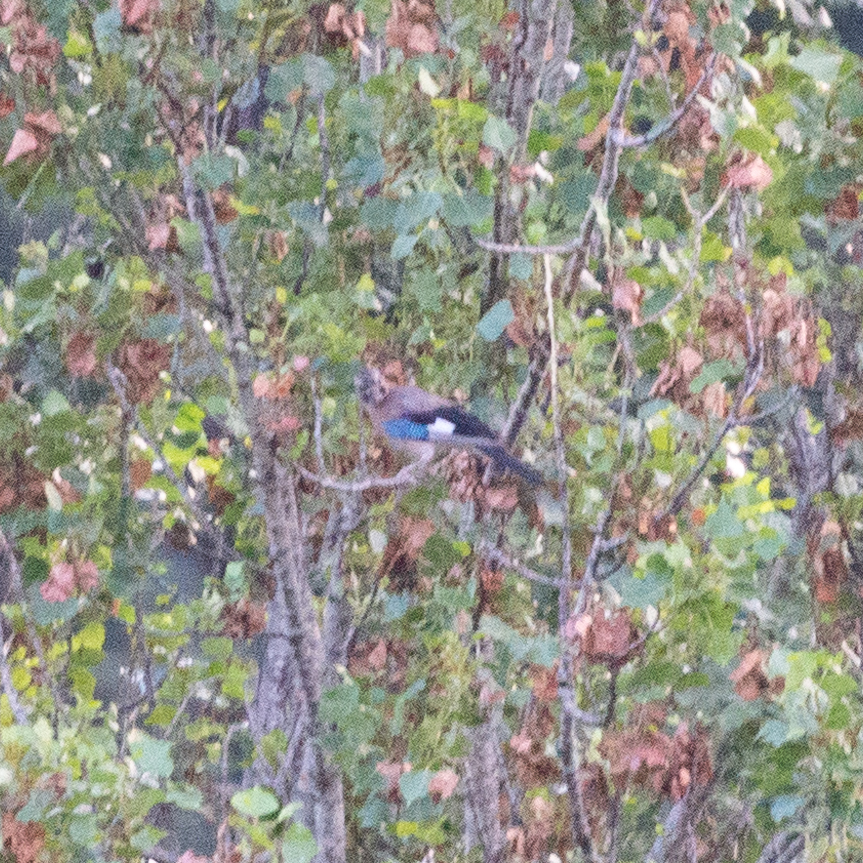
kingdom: Animalia
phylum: Chordata
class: Aves
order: Passeriformes
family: Corvidae
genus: Garrulus
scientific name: Garrulus glandarius
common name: Eurasian jay
